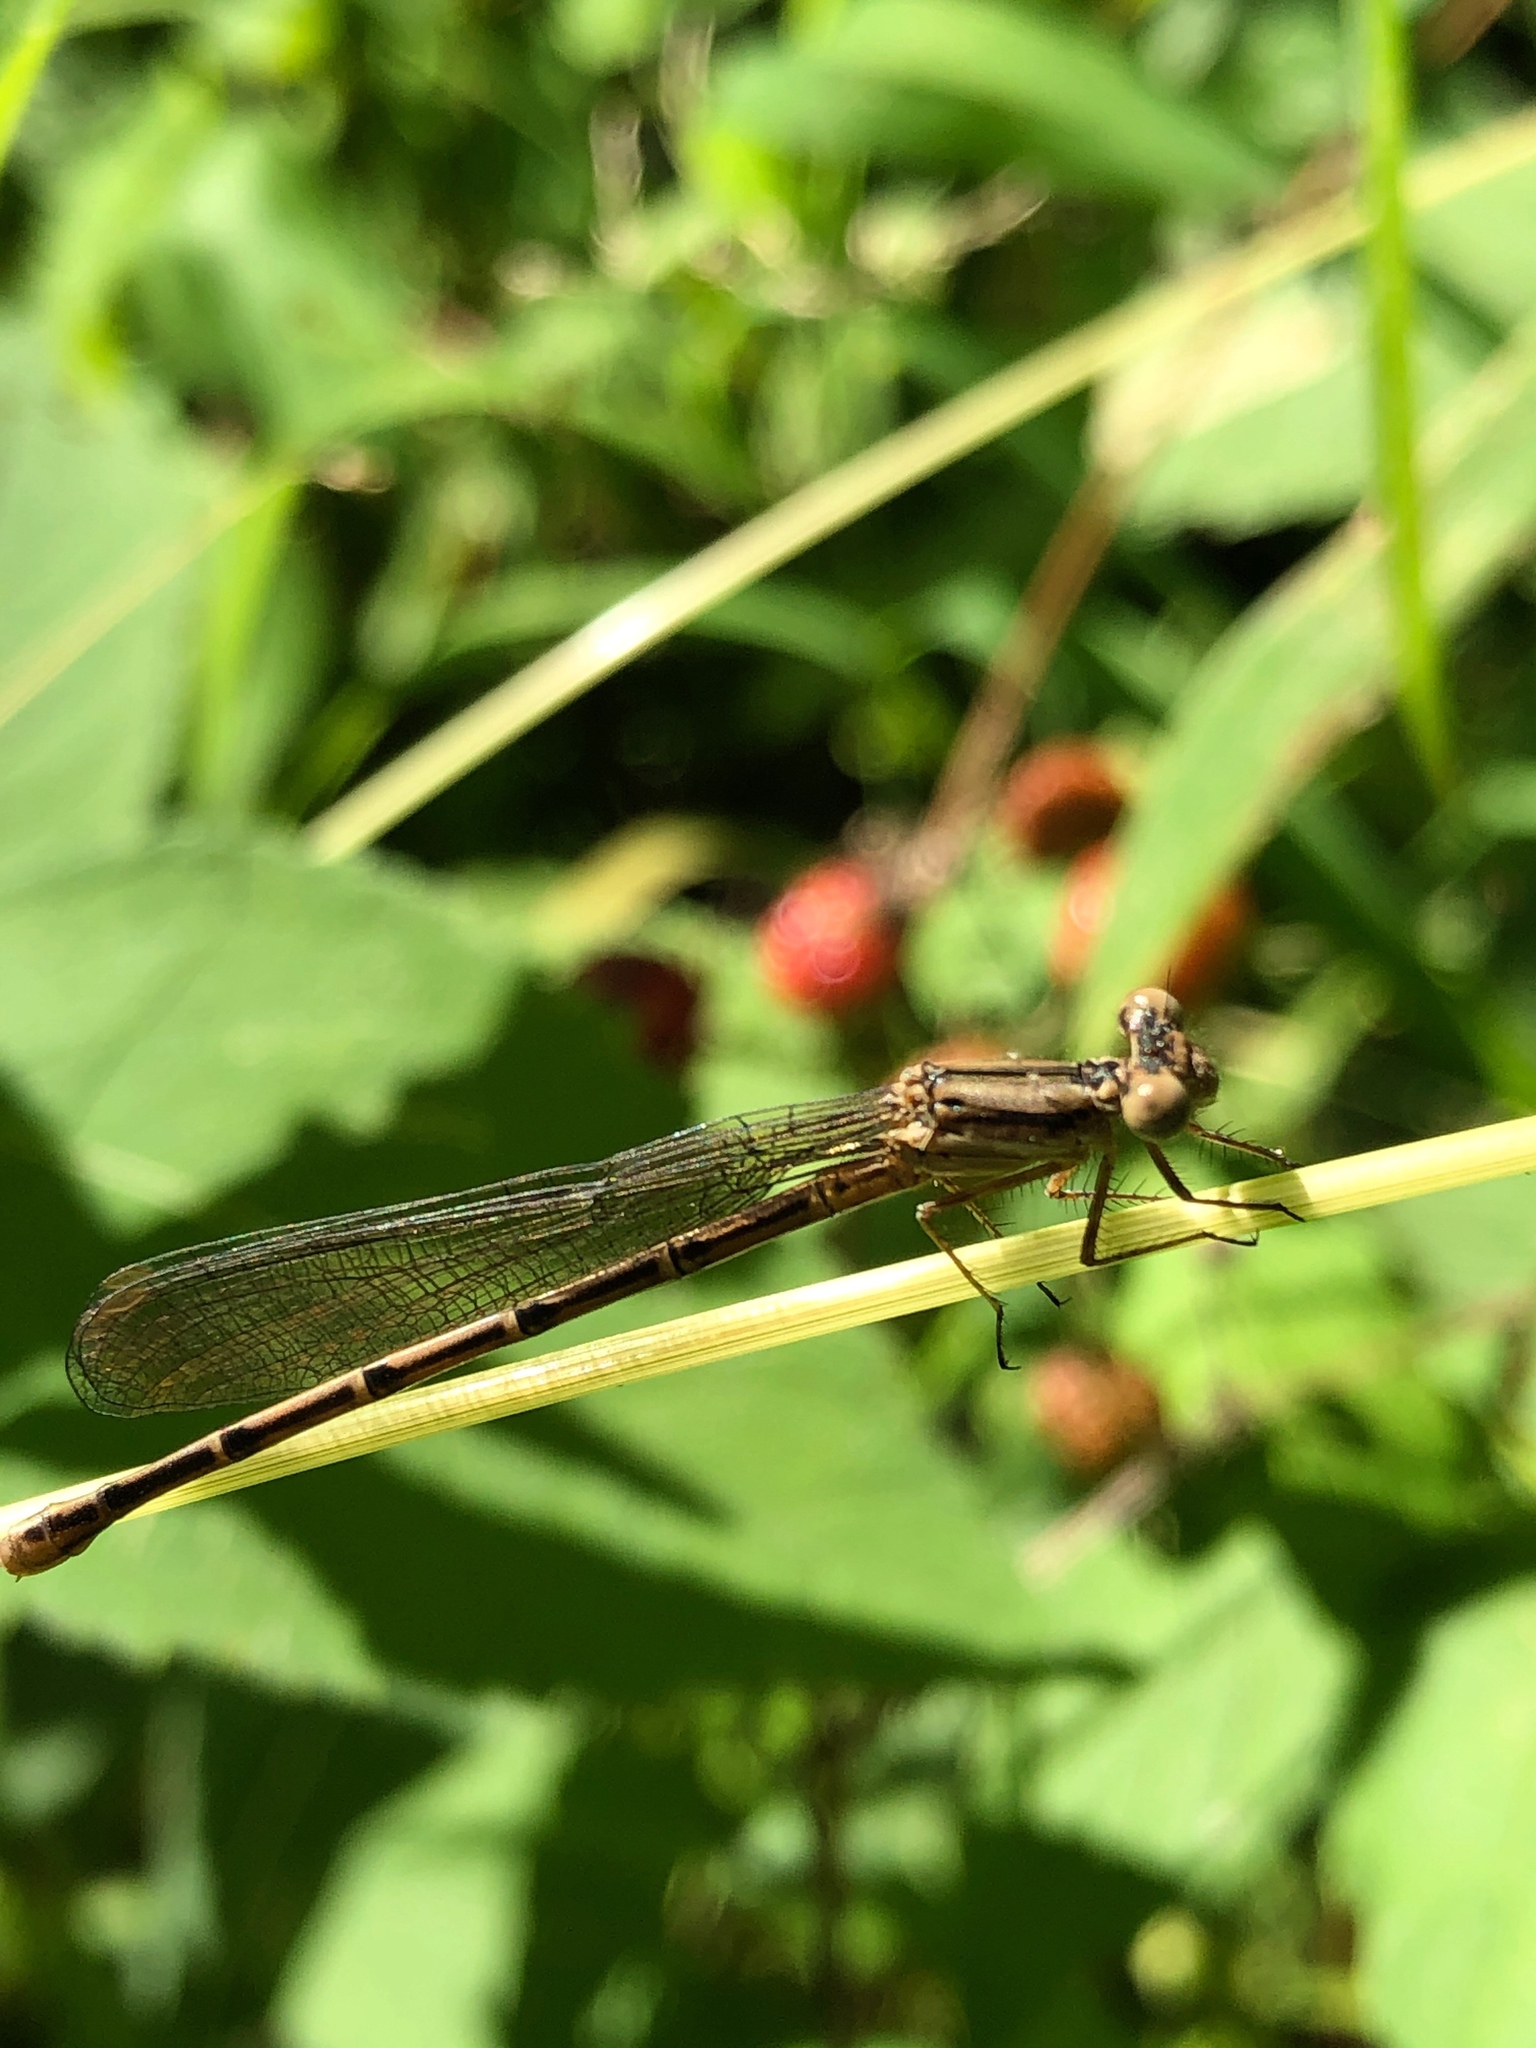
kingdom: Animalia
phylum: Arthropoda
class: Insecta
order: Odonata
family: Coenagrionidae
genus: Argia
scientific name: Argia fumipennis
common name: Variable dancer
